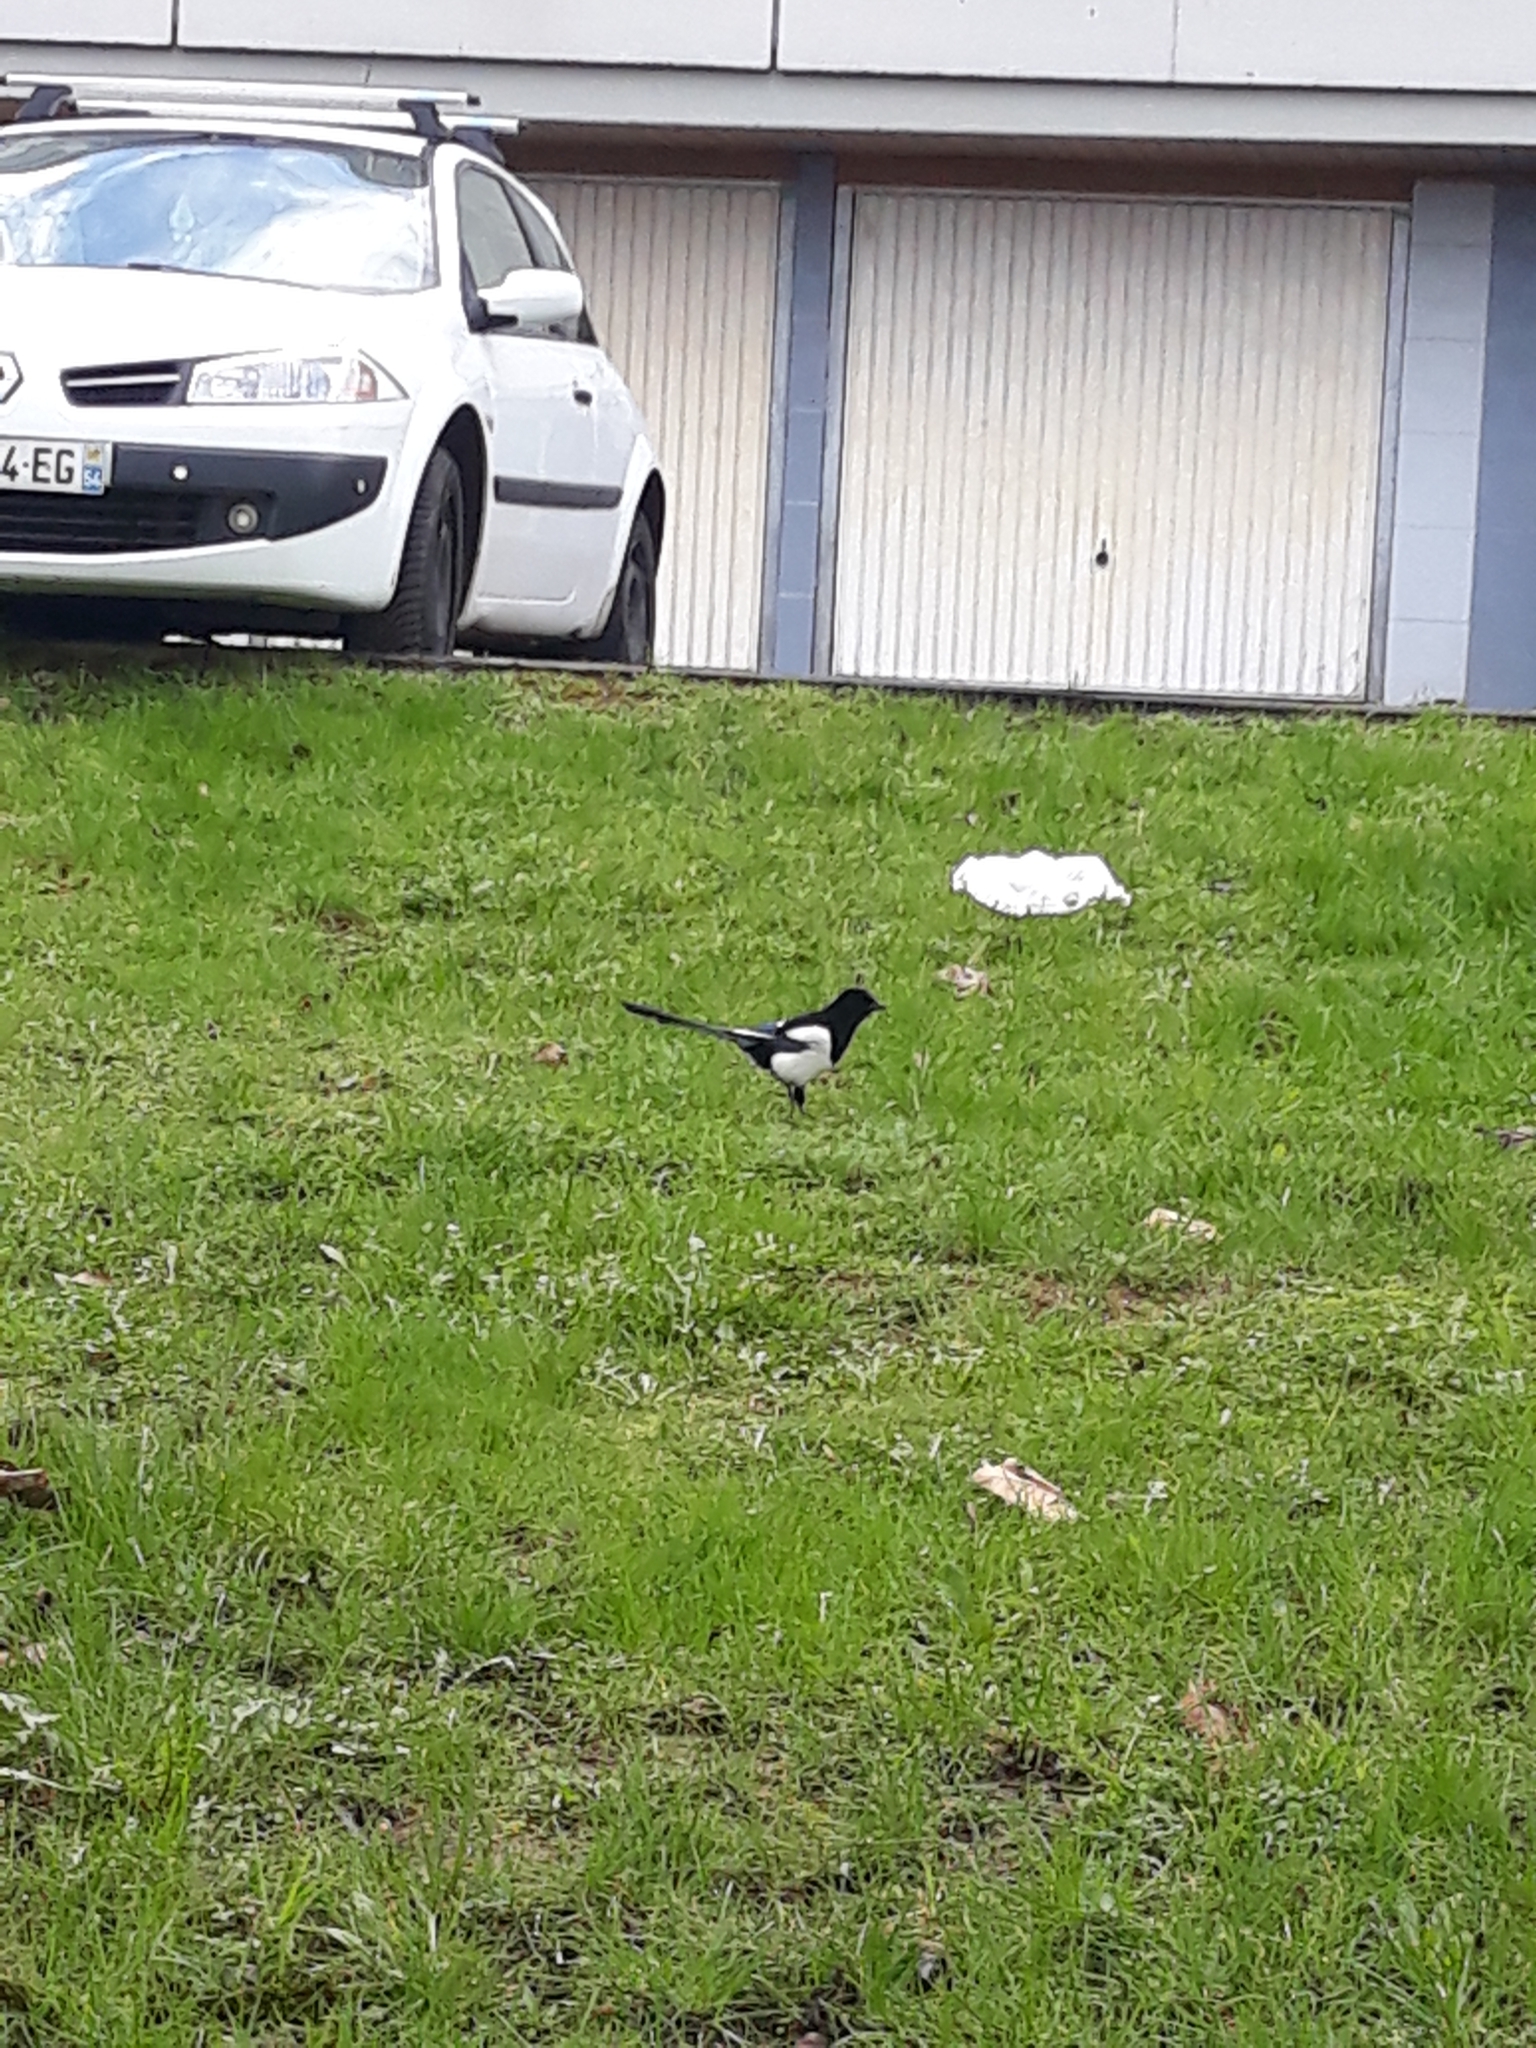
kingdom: Animalia
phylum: Chordata
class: Aves
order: Passeriformes
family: Corvidae
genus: Pica
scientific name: Pica pica
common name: Eurasian magpie
